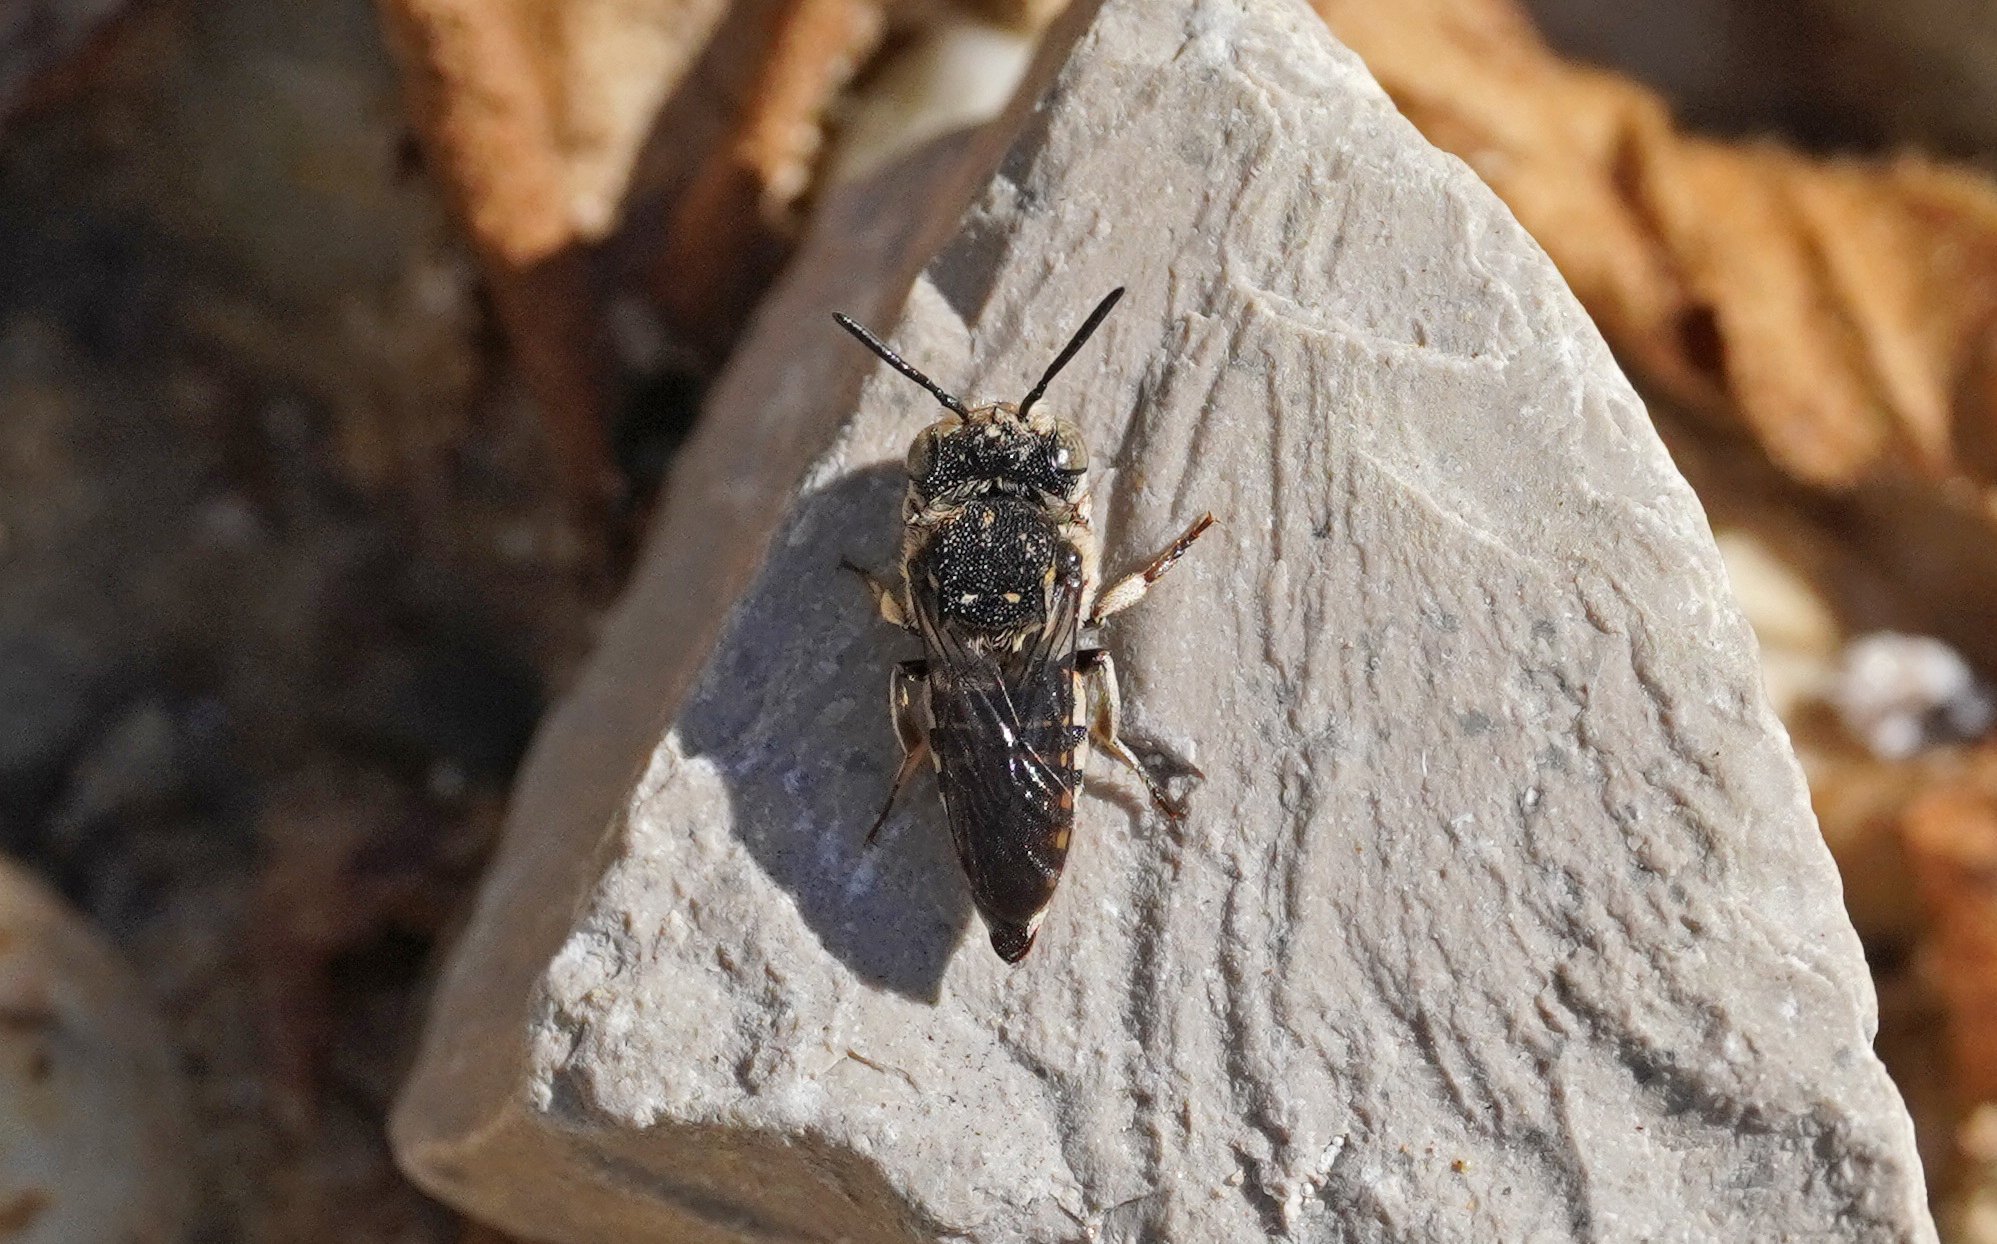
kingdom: Animalia
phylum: Arthropoda
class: Insecta
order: Hymenoptera
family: Megachilidae
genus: Coelioxys
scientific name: Coelioxys afra
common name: Short sharp-tail bee
